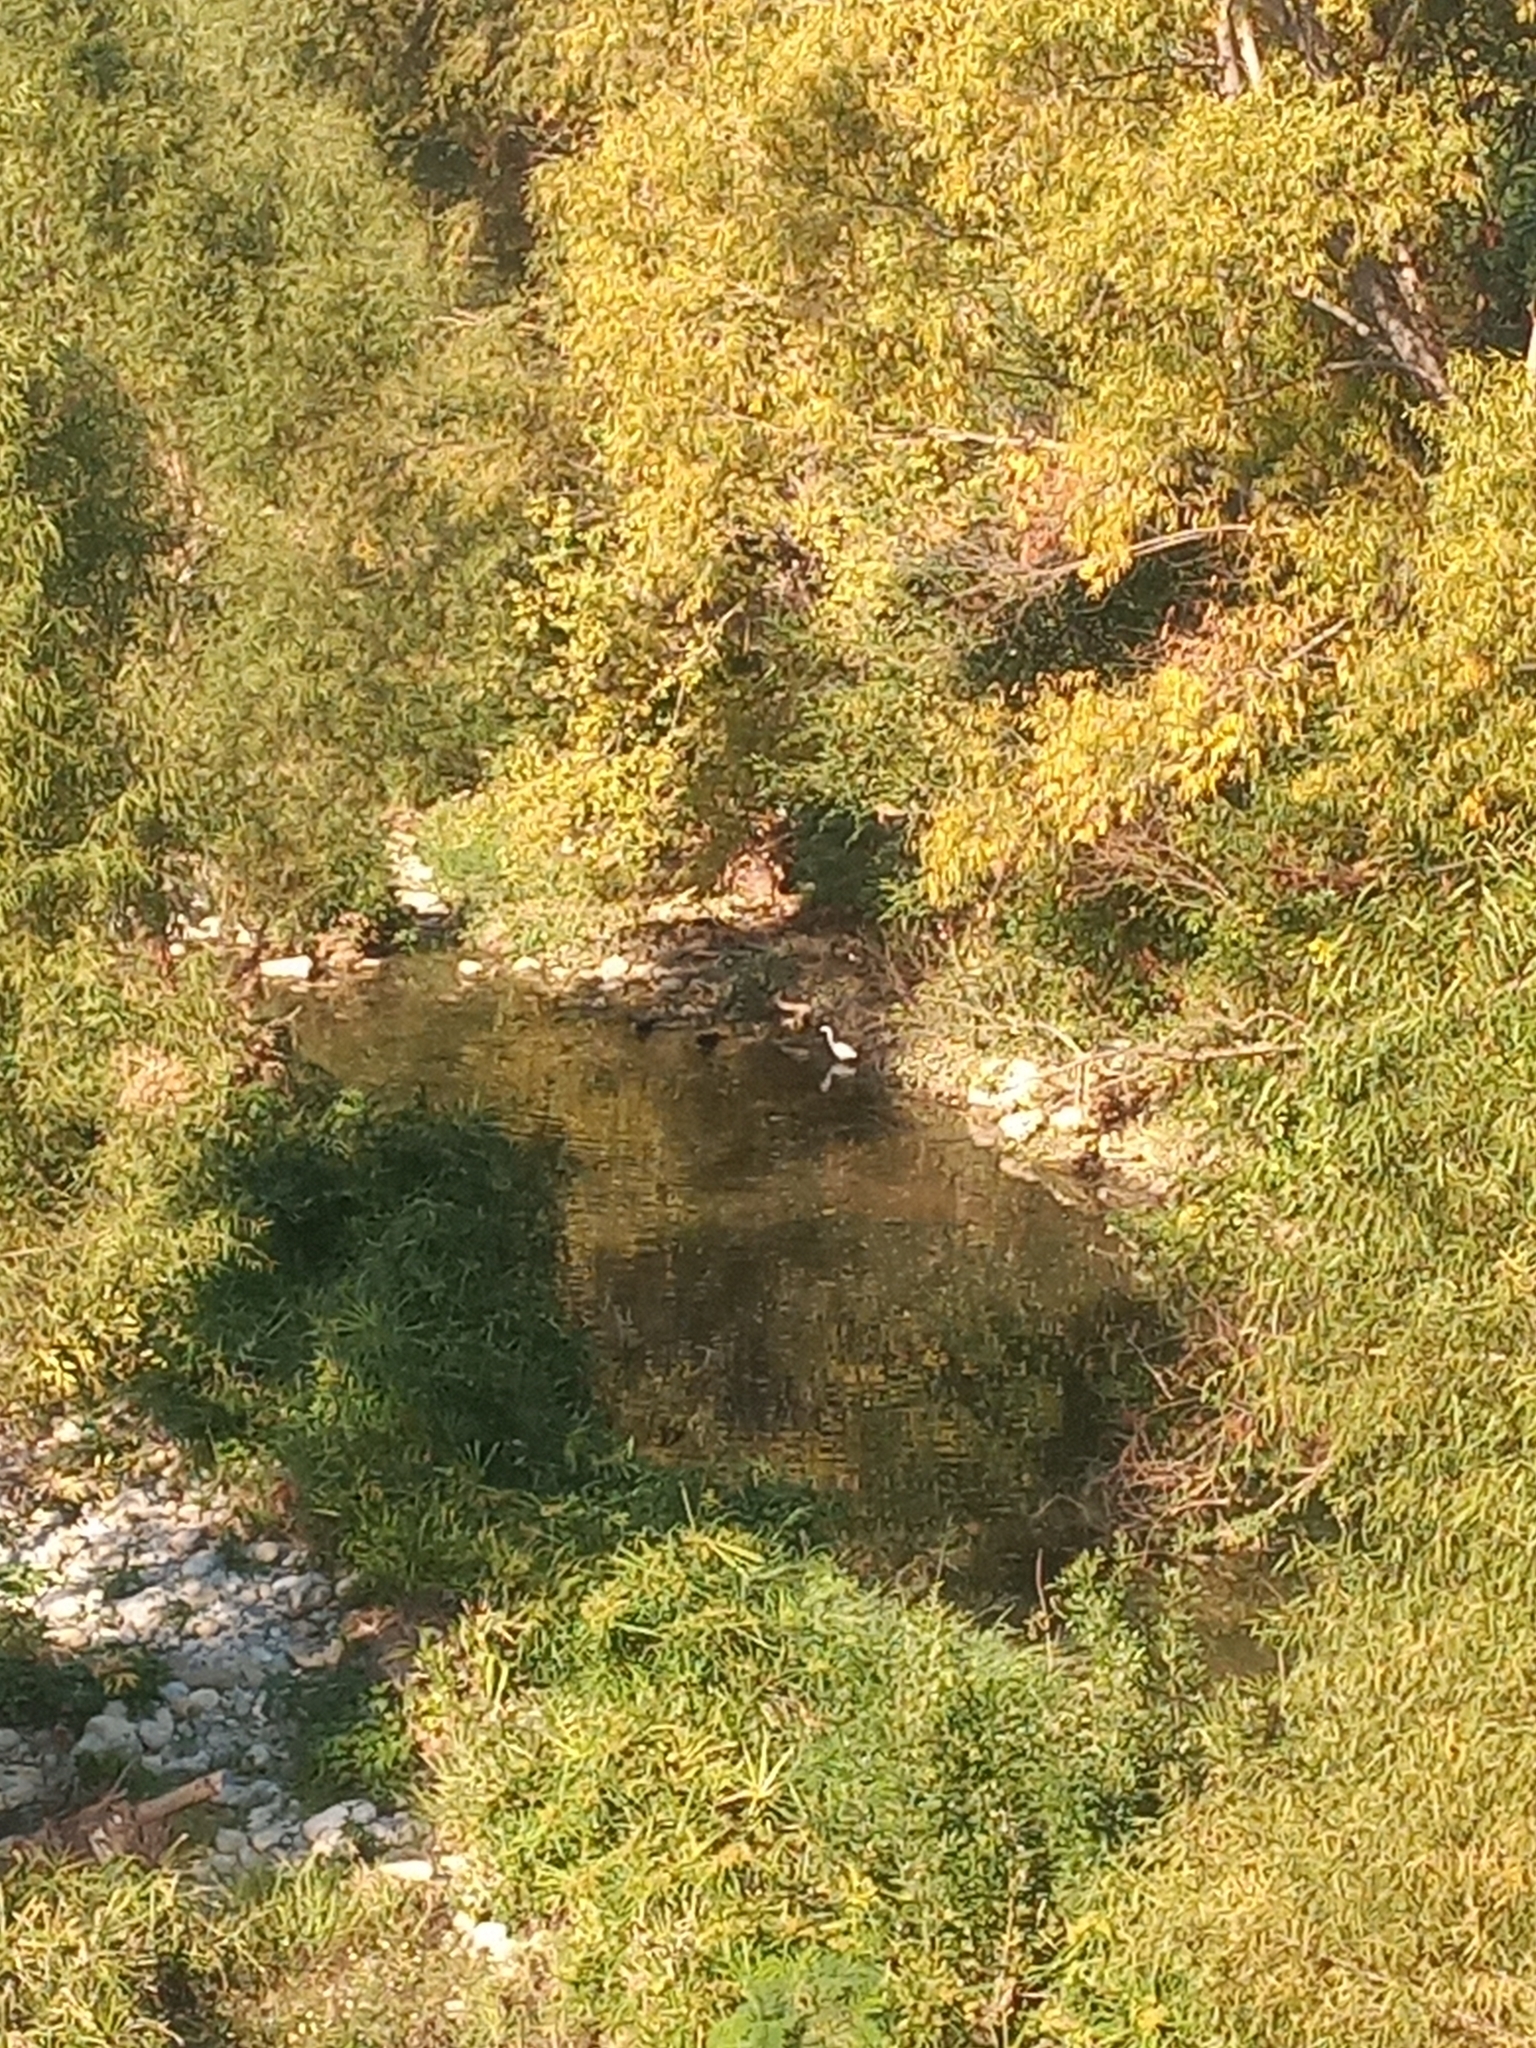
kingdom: Animalia
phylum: Chordata
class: Aves
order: Pelecaniformes
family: Ardeidae
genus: Ardea
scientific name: Ardea alba
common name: Great egret
